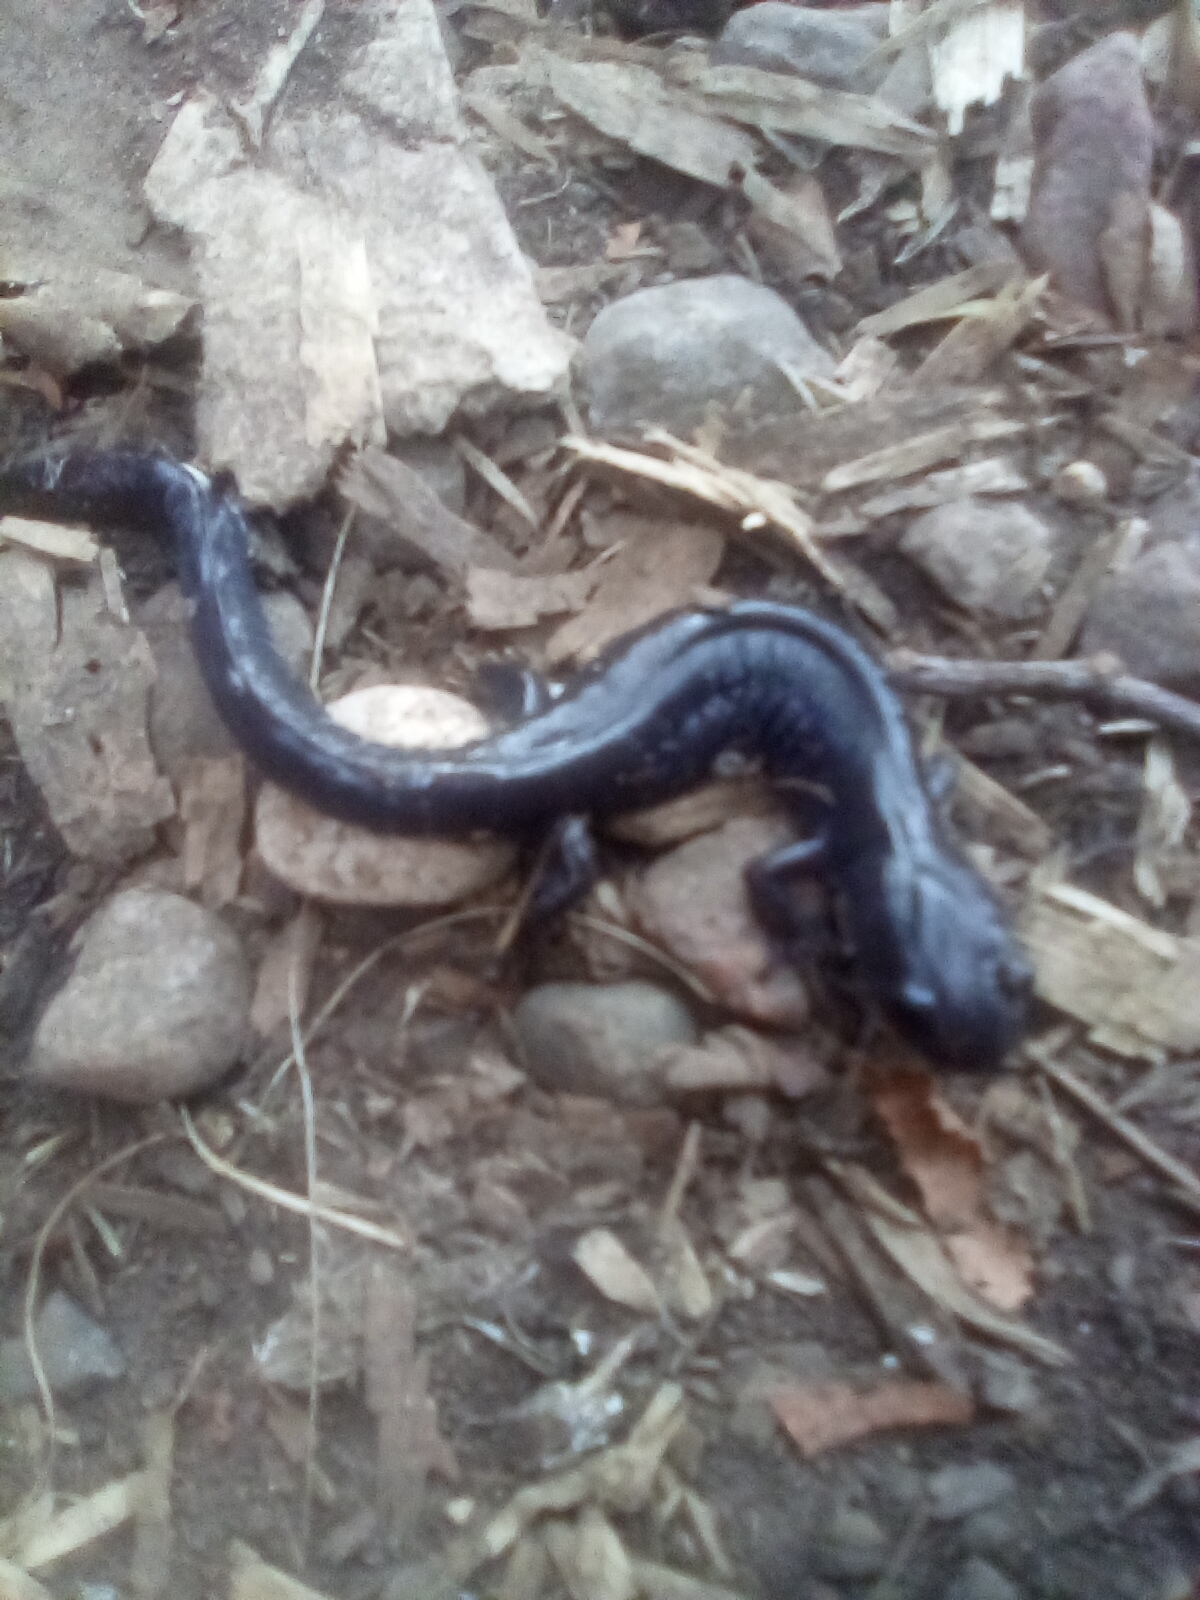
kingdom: Animalia
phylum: Chordata
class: Amphibia
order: Caudata
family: Ambystomatidae
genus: Ambystoma
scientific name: Ambystoma laterale
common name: Blue-spotted salamander
